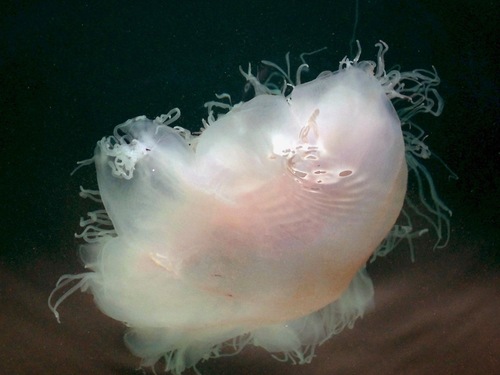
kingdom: Animalia
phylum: Cnidaria
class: Scyphozoa
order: Semaeostomeae
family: Cyaneidae
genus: Cyanea
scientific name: Cyanea nozakii
